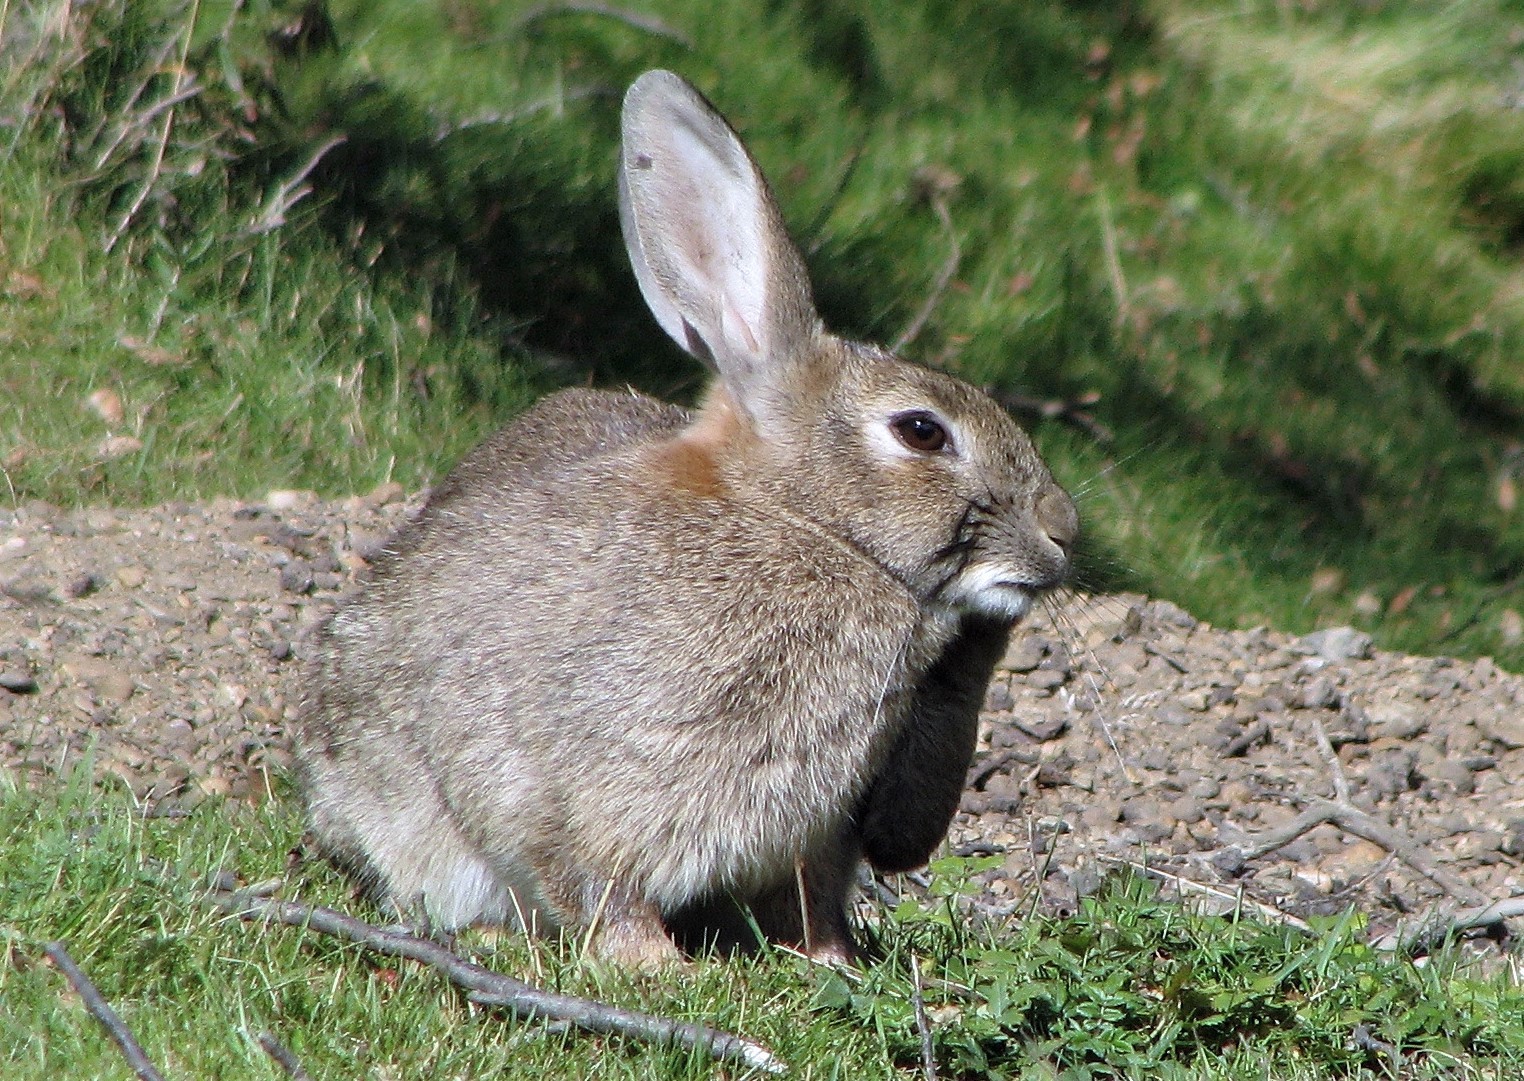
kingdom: Animalia
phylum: Chordata
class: Mammalia
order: Lagomorpha
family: Leporidae
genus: Oryctolagus
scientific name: Oryctolagus cuniculus
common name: European rabbit
